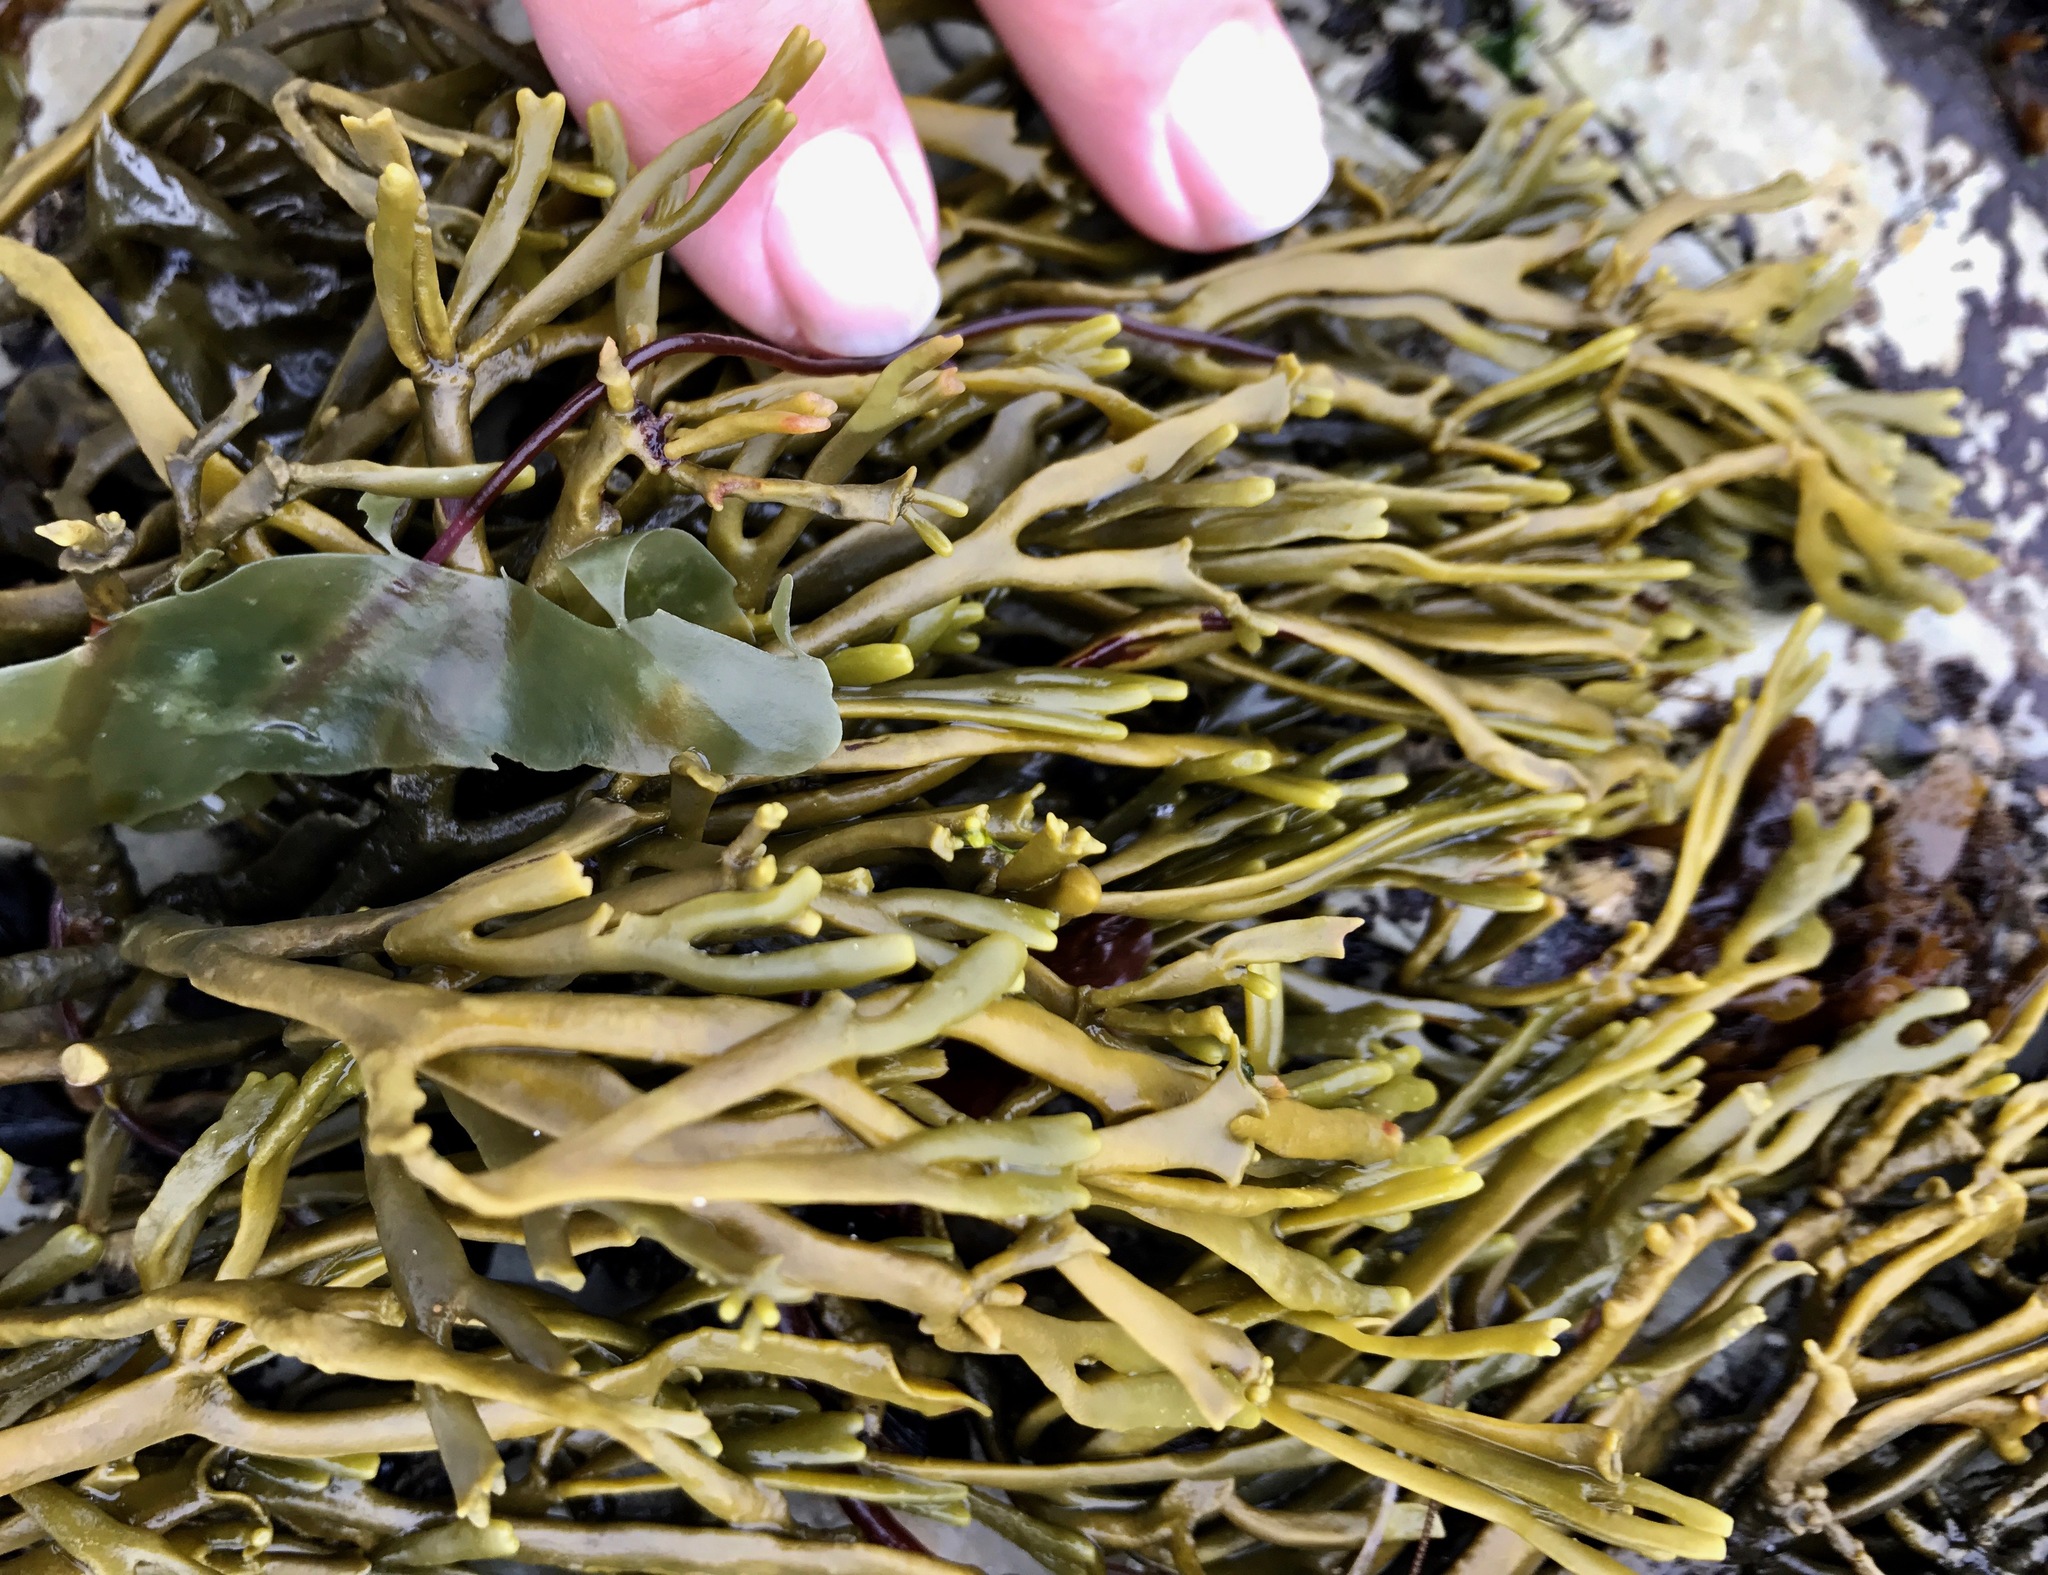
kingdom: Chromista
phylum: Ochrophyta
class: Phaeophyceae
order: Fucales
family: Fucaceae
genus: Silvetia
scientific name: Silvetia
